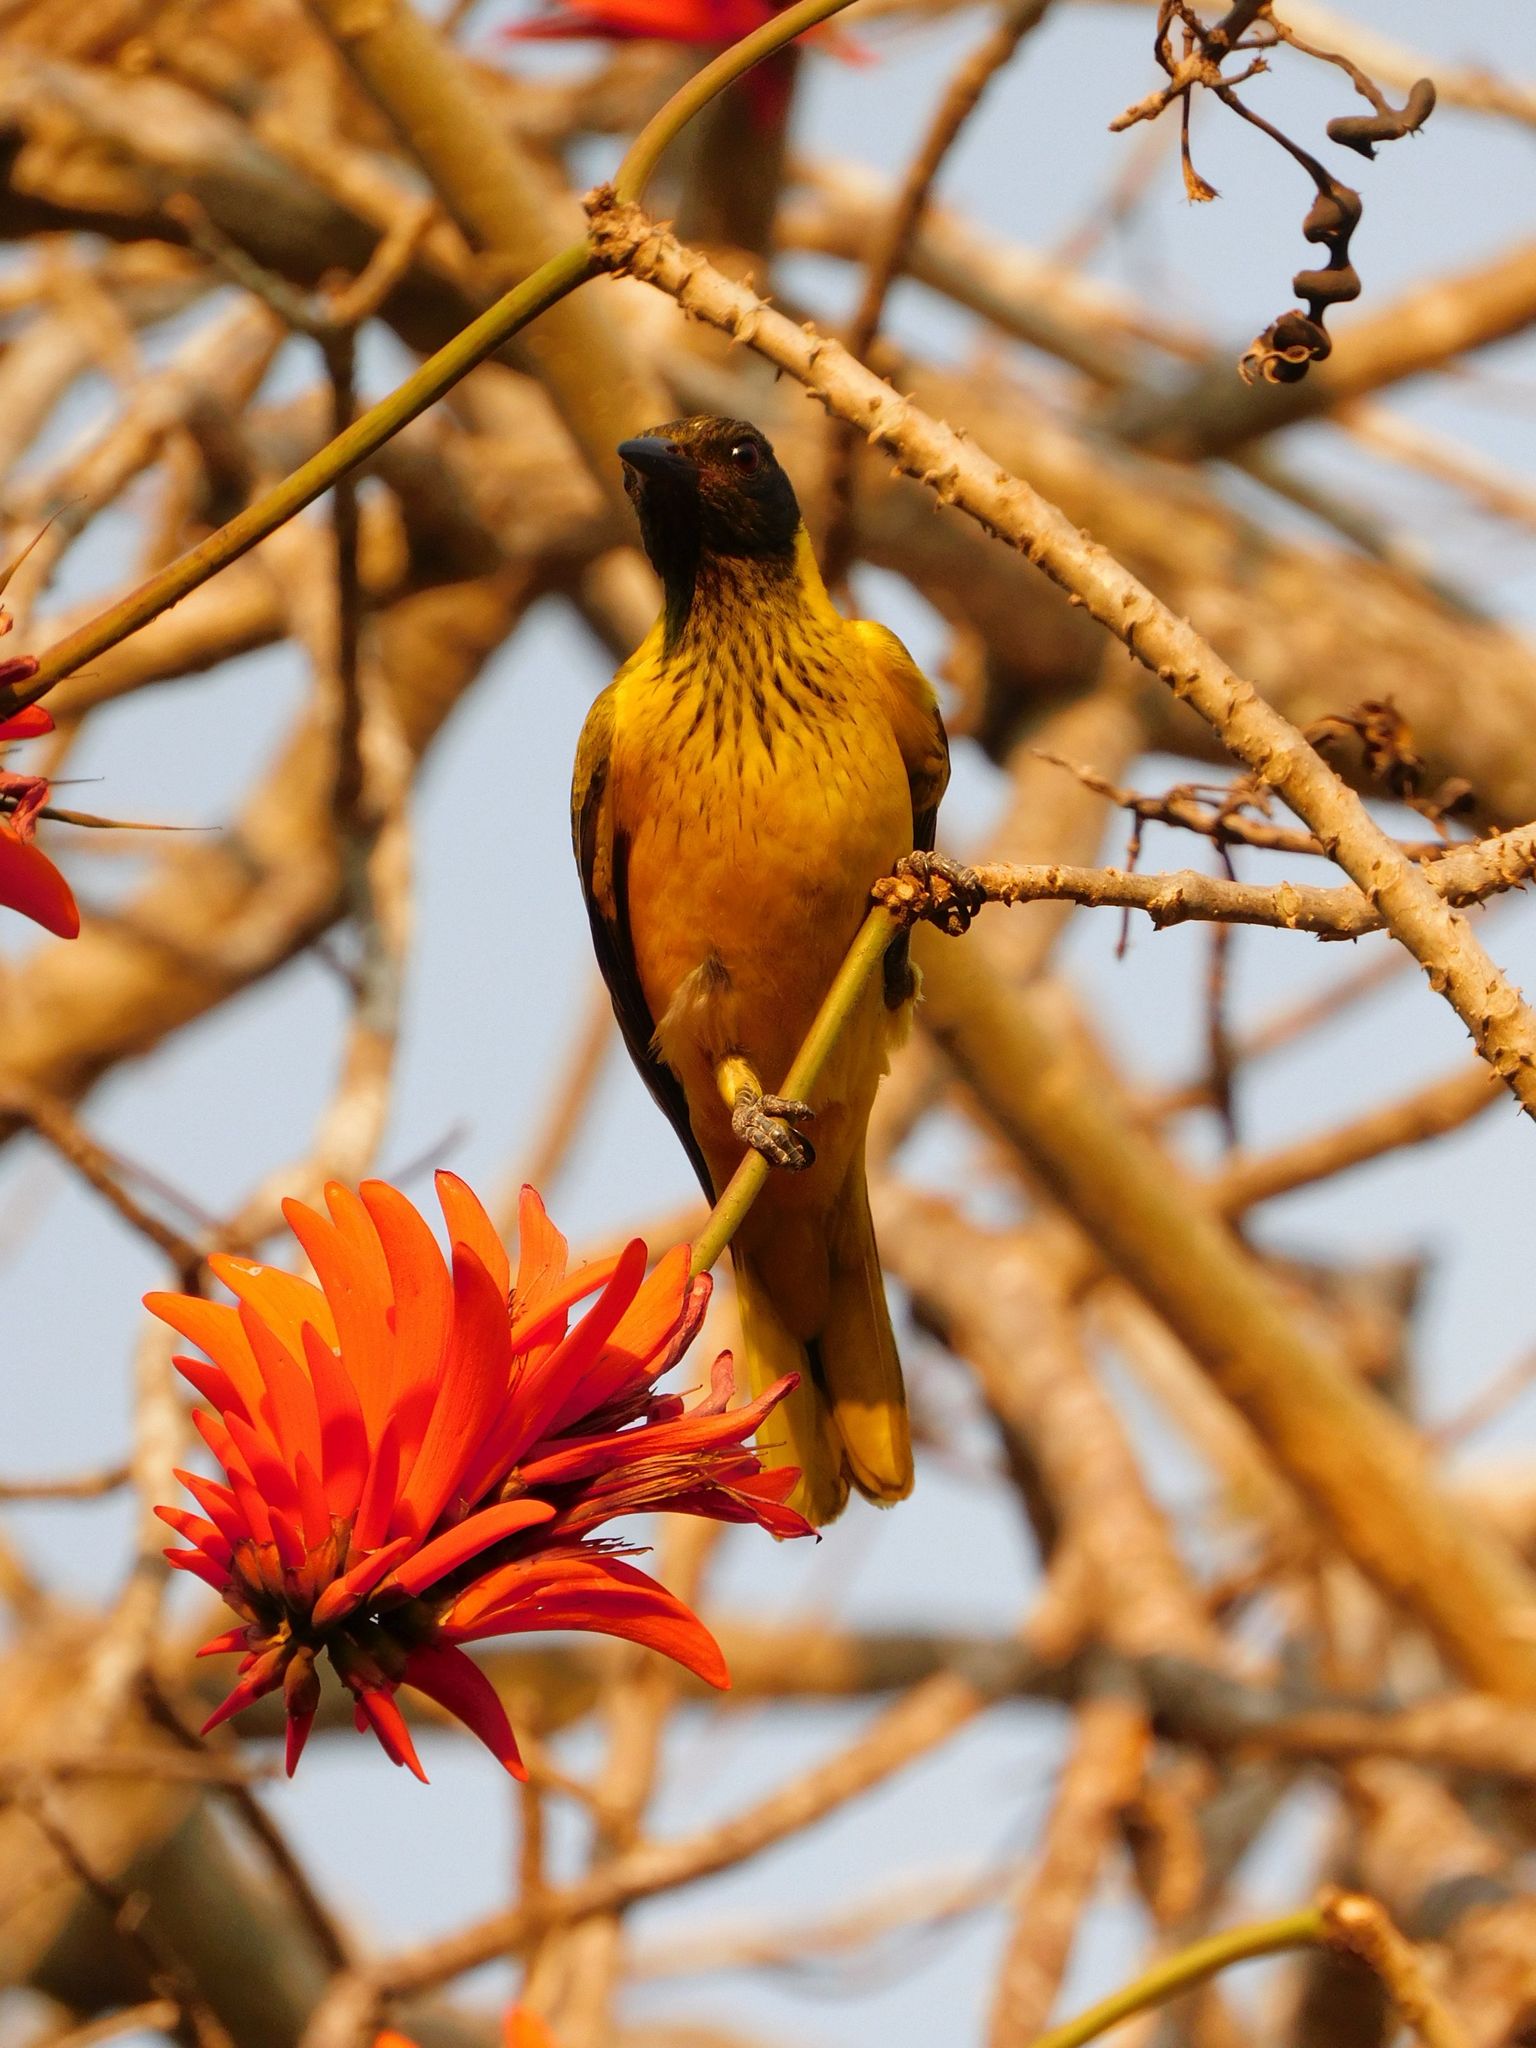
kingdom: Animalia
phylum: Chordata
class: Aves
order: Passeriformes
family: Oriolidae
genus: Oriolus
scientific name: Oriolus larvatus
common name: Black-headed oriole
